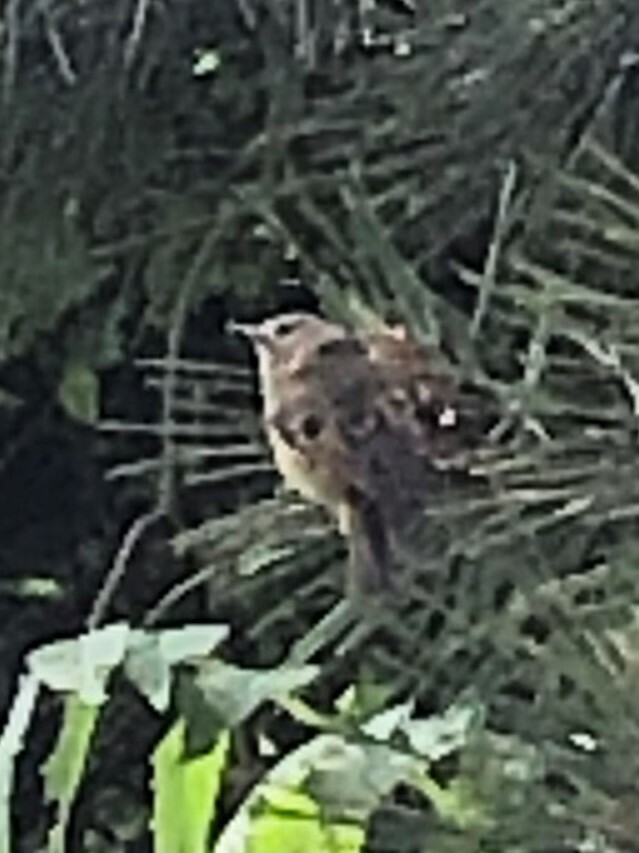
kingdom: Animalia
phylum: Chordata
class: Aves
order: Passeriformes
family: Regulidae
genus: Regulus
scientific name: Regulus regulus
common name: Goldcrest
